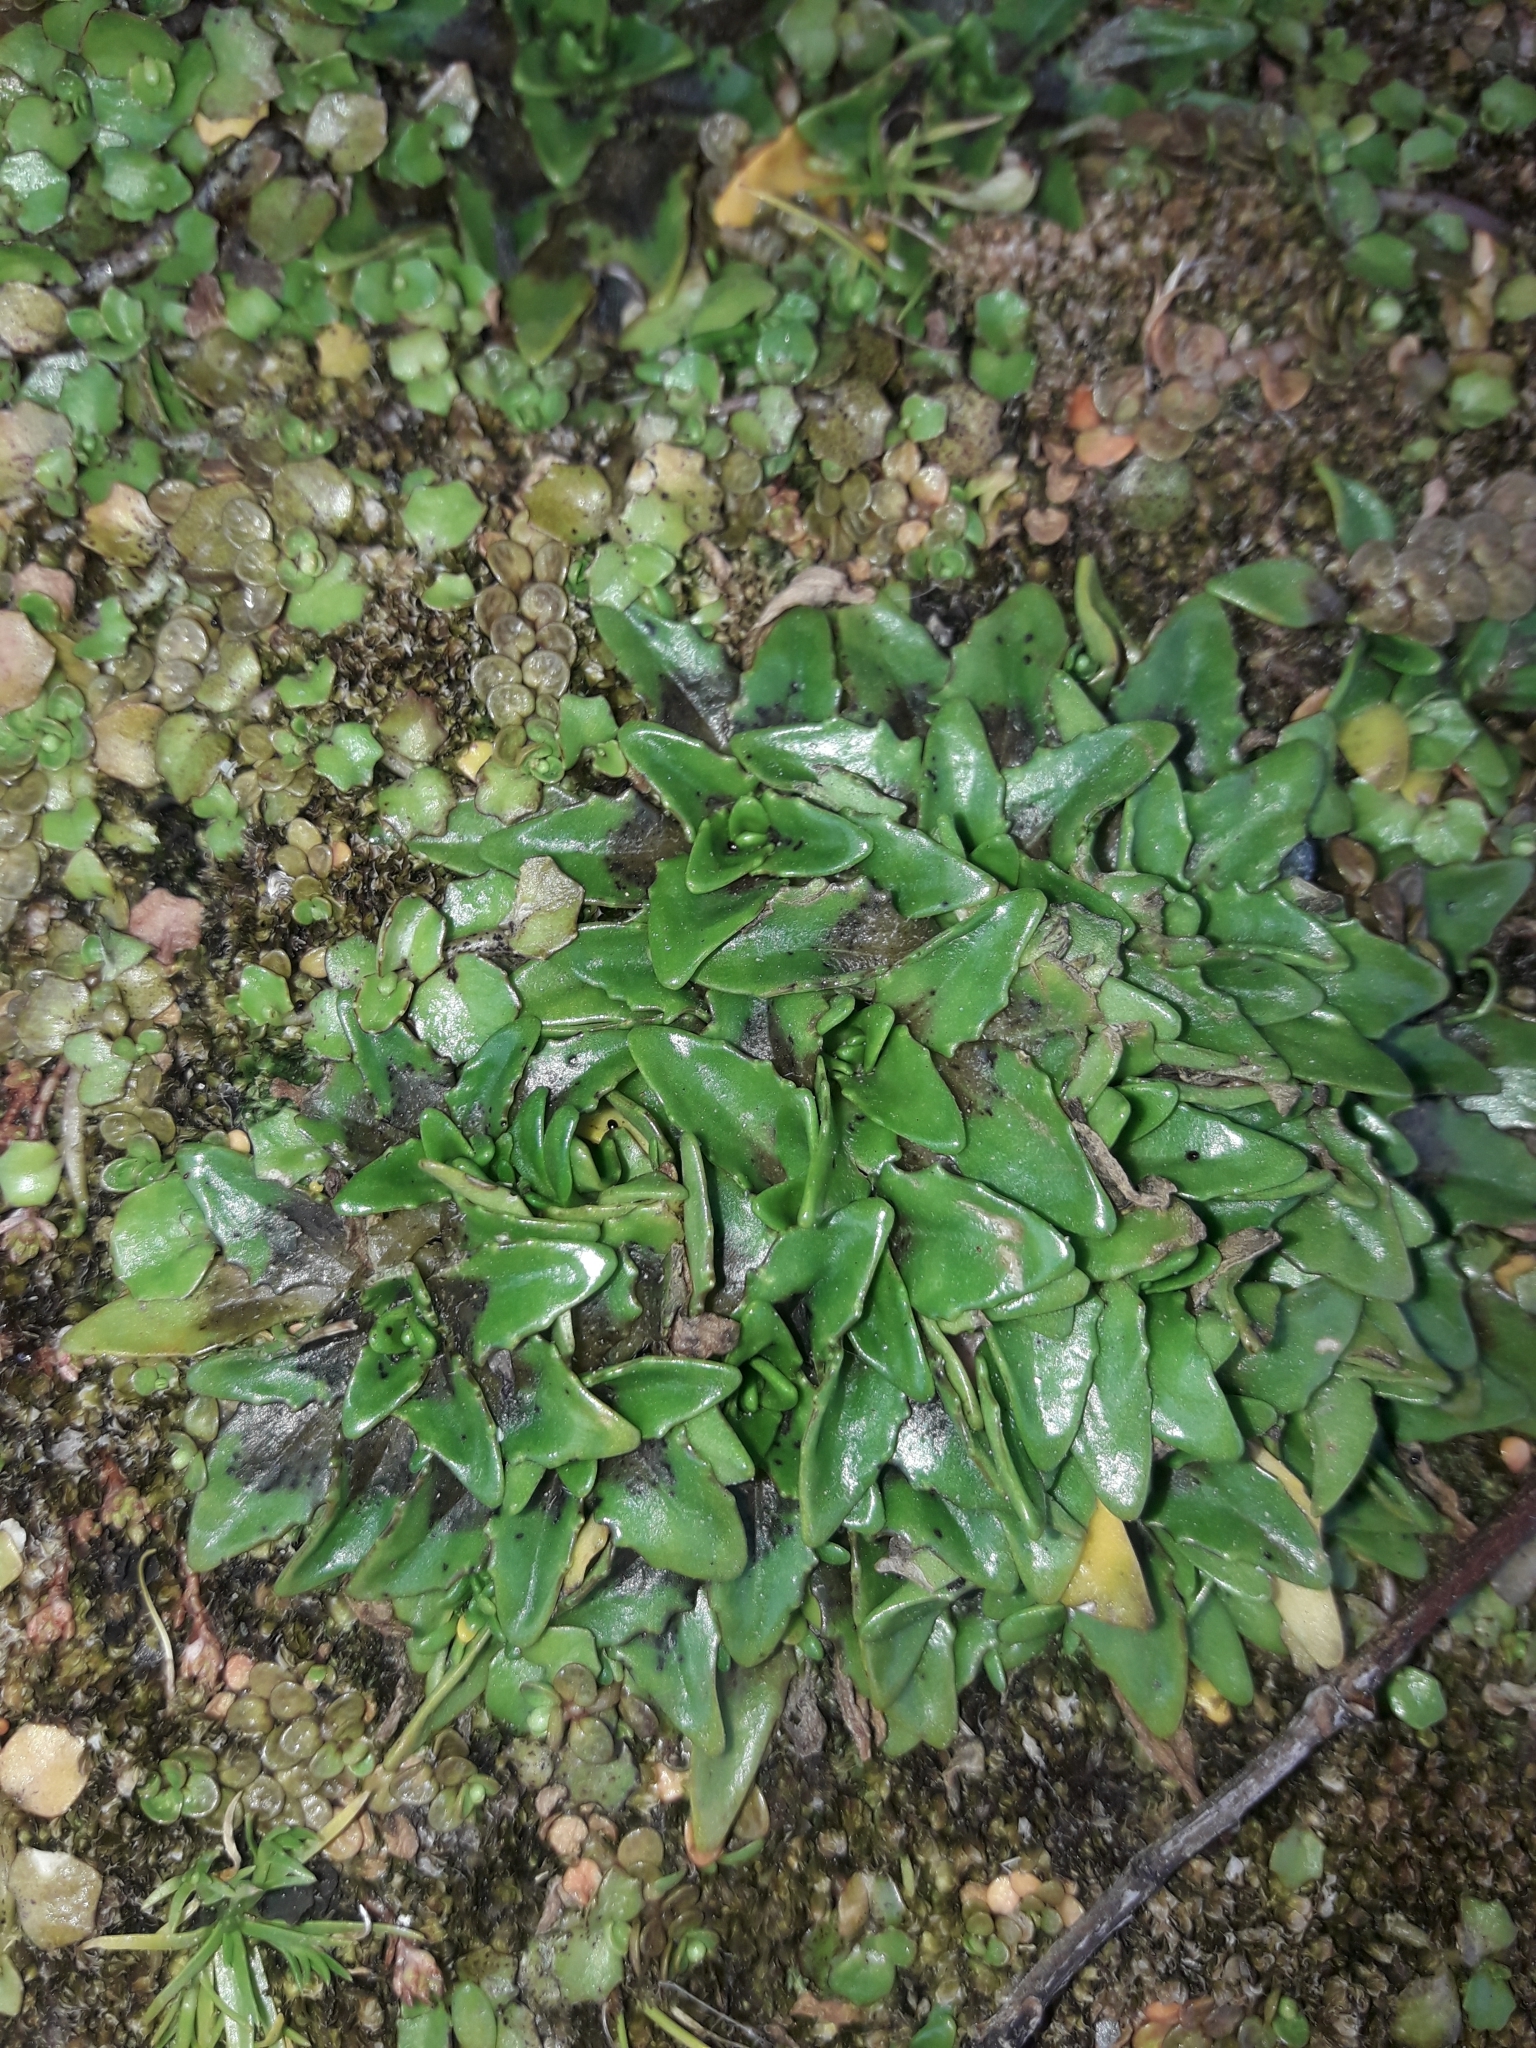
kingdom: Plantae
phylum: Tracheophyta
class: Magnoliopsida
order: Lamiales
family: Plantaginaceae
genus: Plantago
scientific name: Plantago triandra
